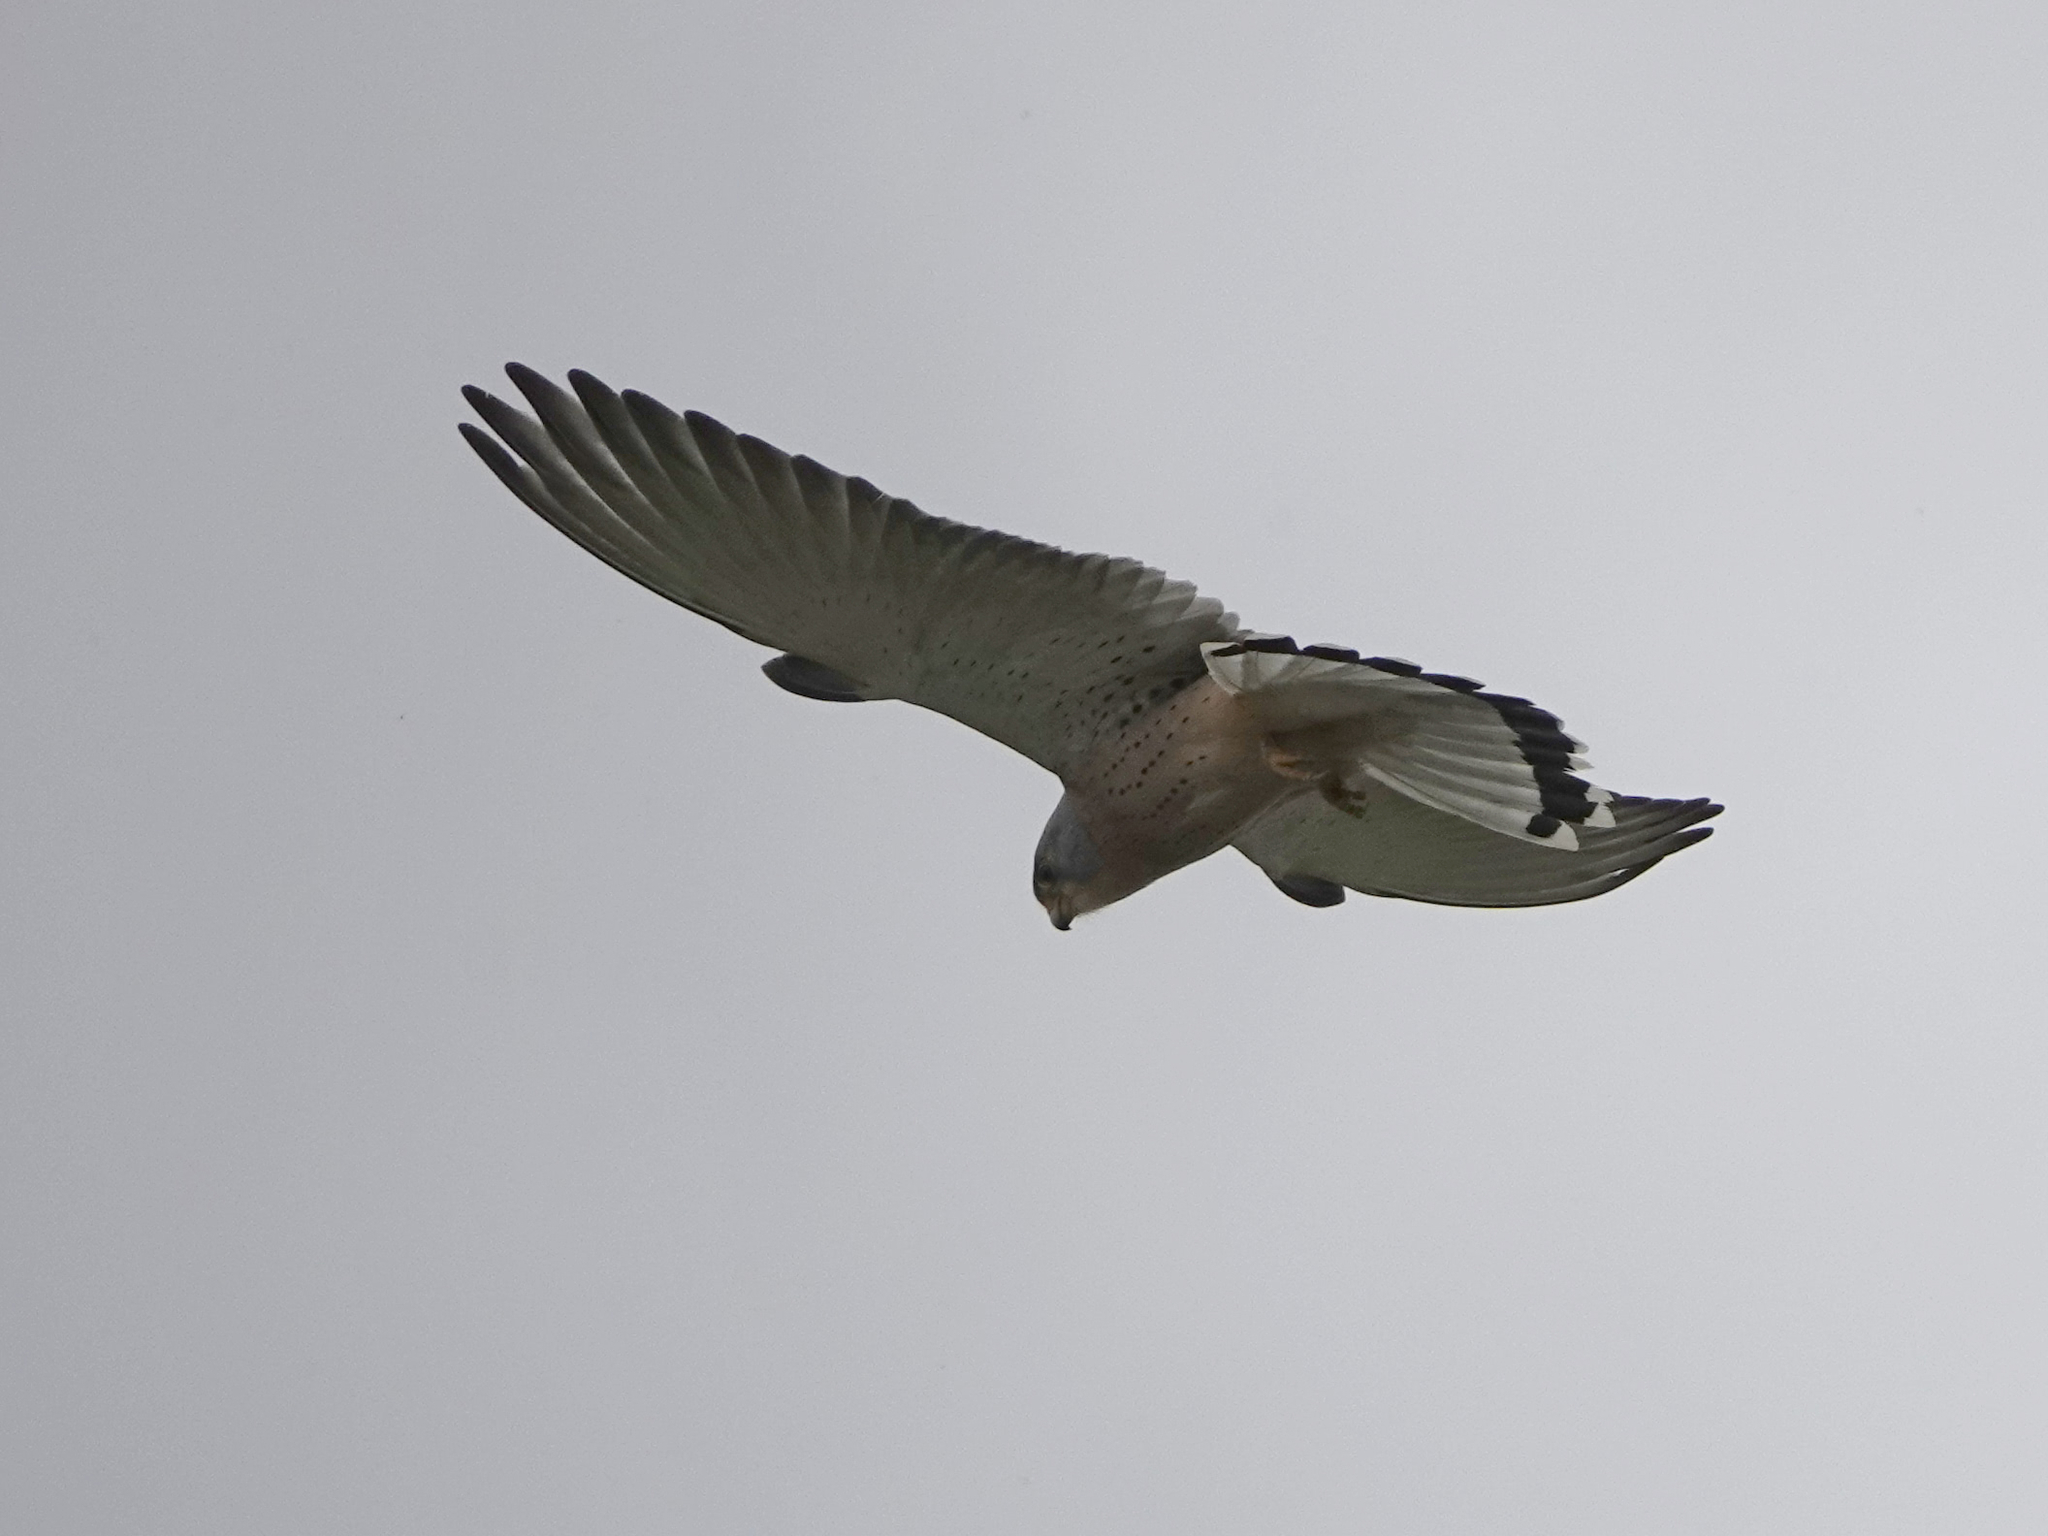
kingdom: Animalia
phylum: Chordata
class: Aves
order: Falconiformes
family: Falconidae
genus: Falco
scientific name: Falco naumanni
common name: Lesser kestrel
